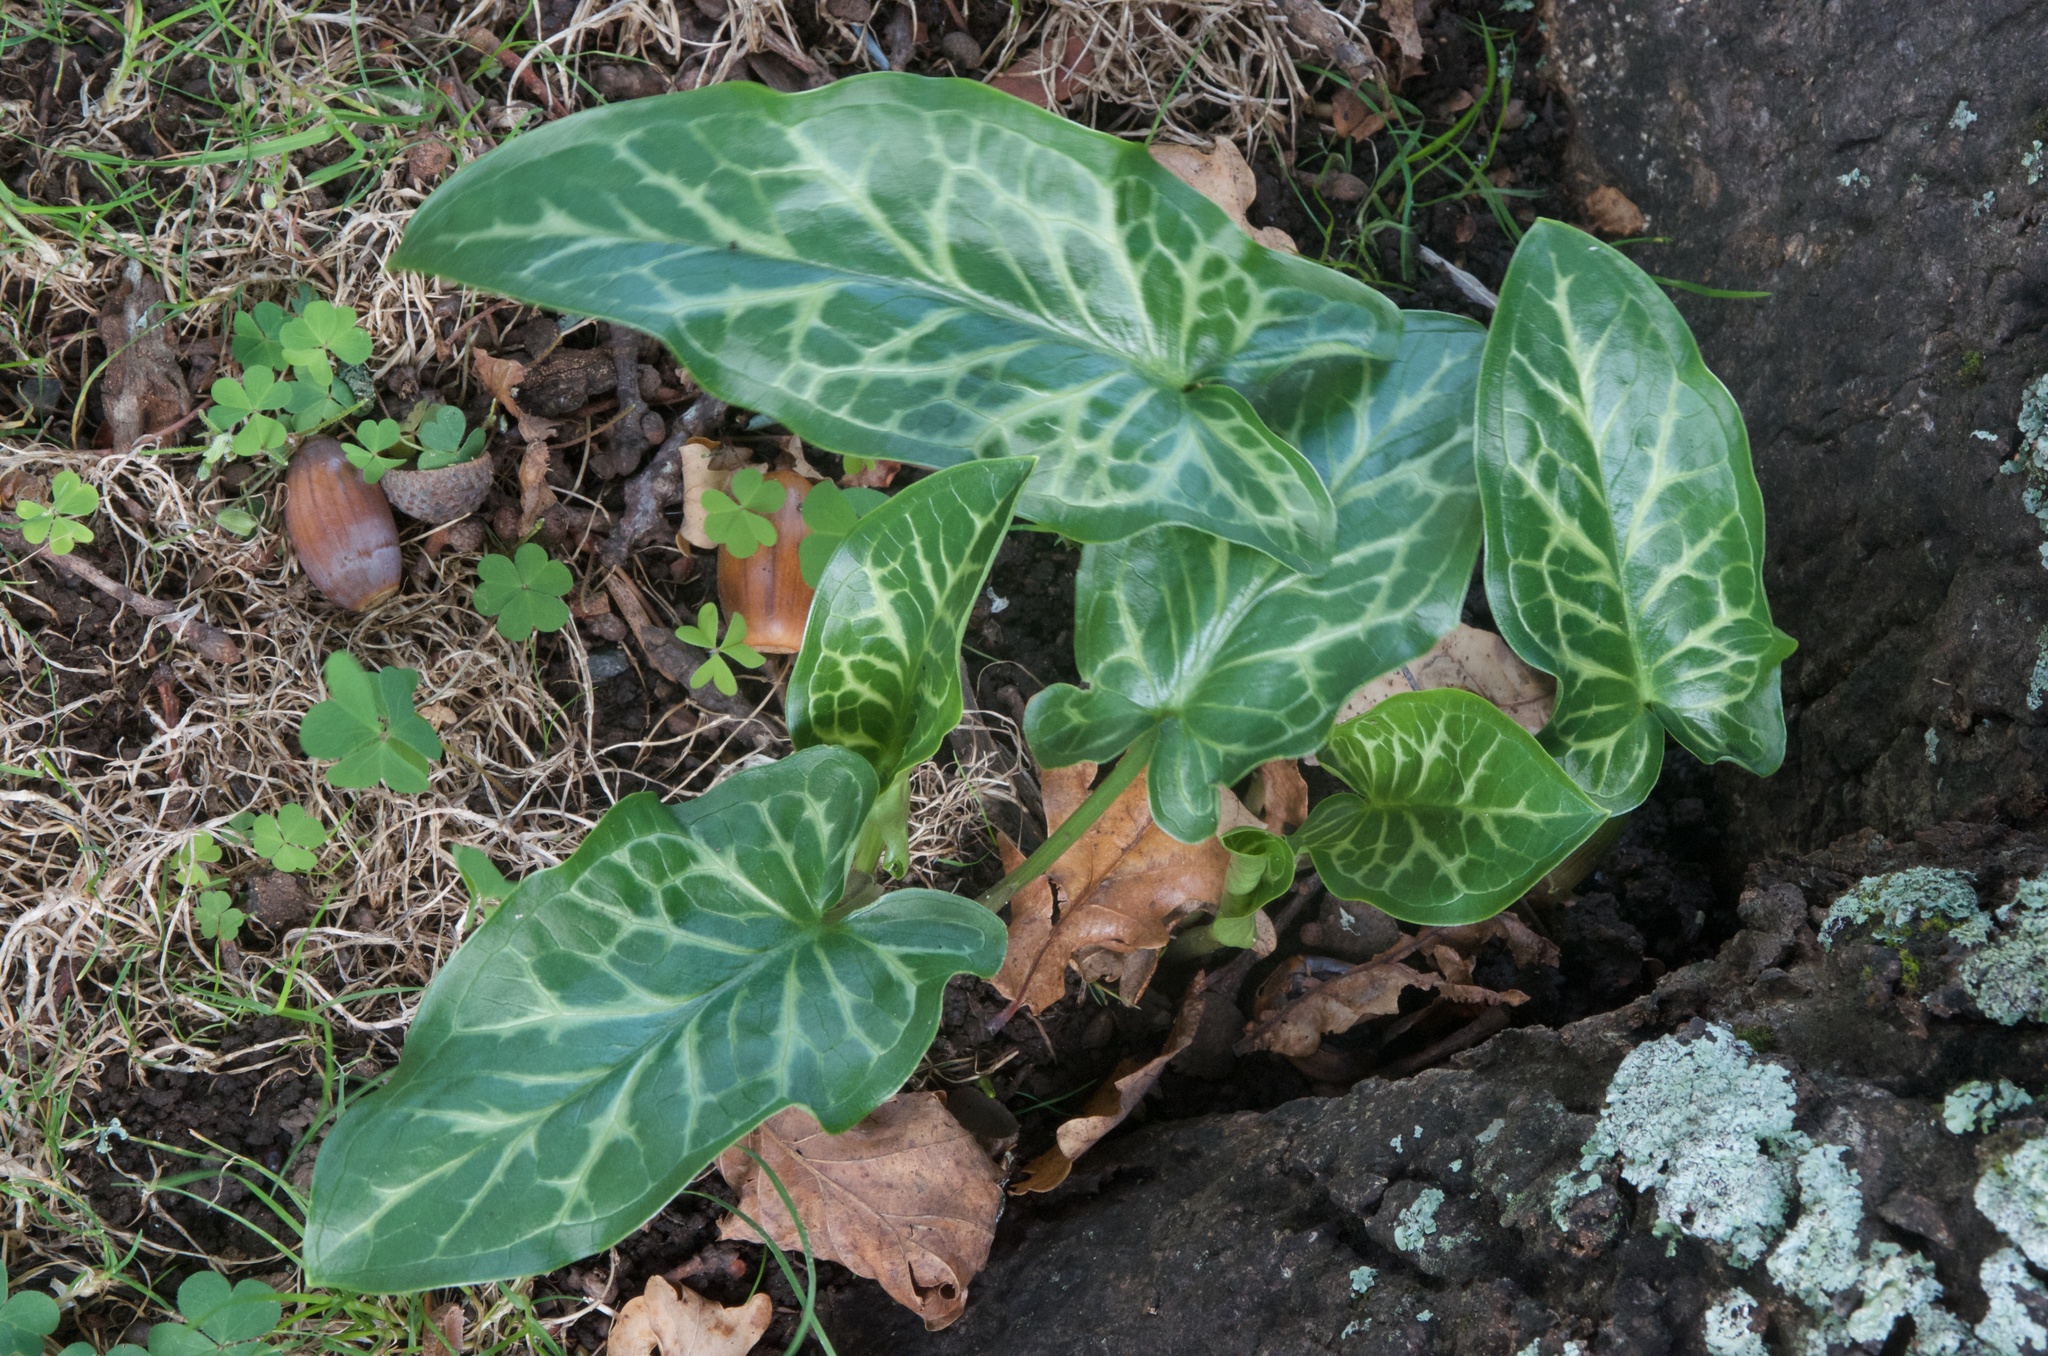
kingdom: Plantae
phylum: Tracheophyta
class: Liliopsida
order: Alismatales
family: Araceae
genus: Arum
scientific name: Arum italicum
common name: Italian lords-and-ladies
